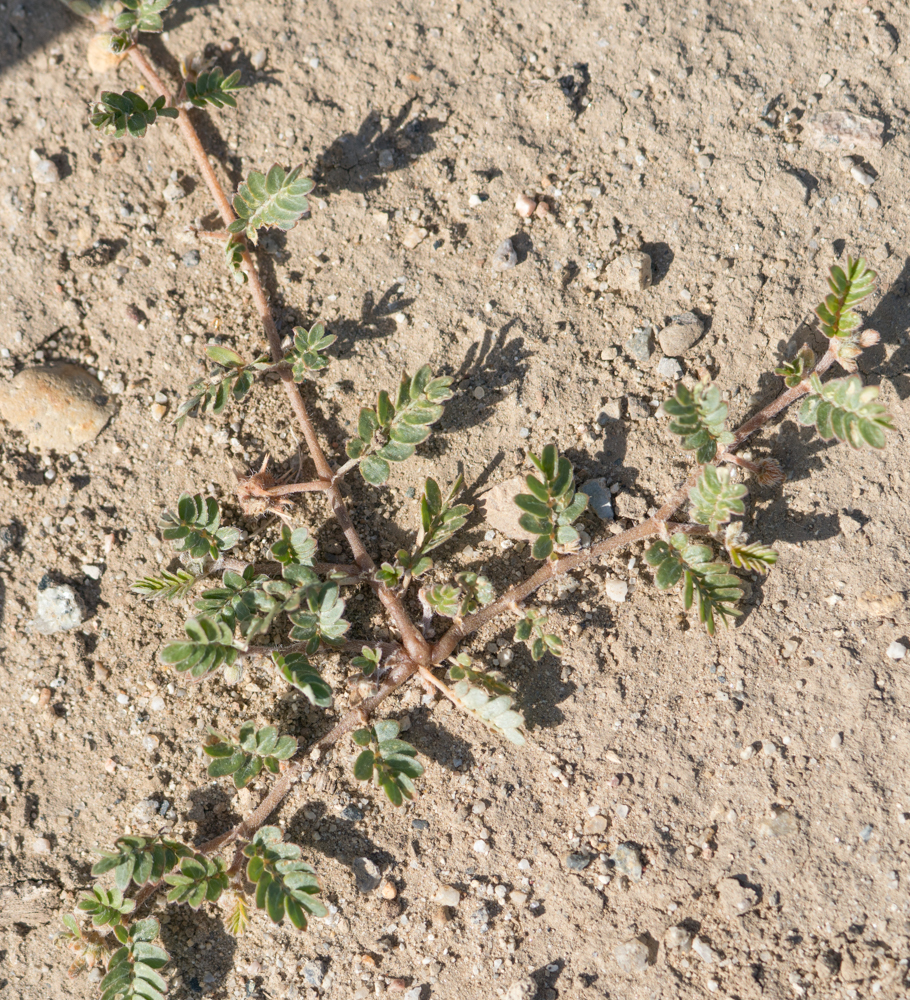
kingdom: Plantae
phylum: Tracheophyta
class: Magnoliopsida
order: Zygophyllales
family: Zygophyllaceae
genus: Tribulus
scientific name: Tribulus terrestris
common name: Puncturevine
